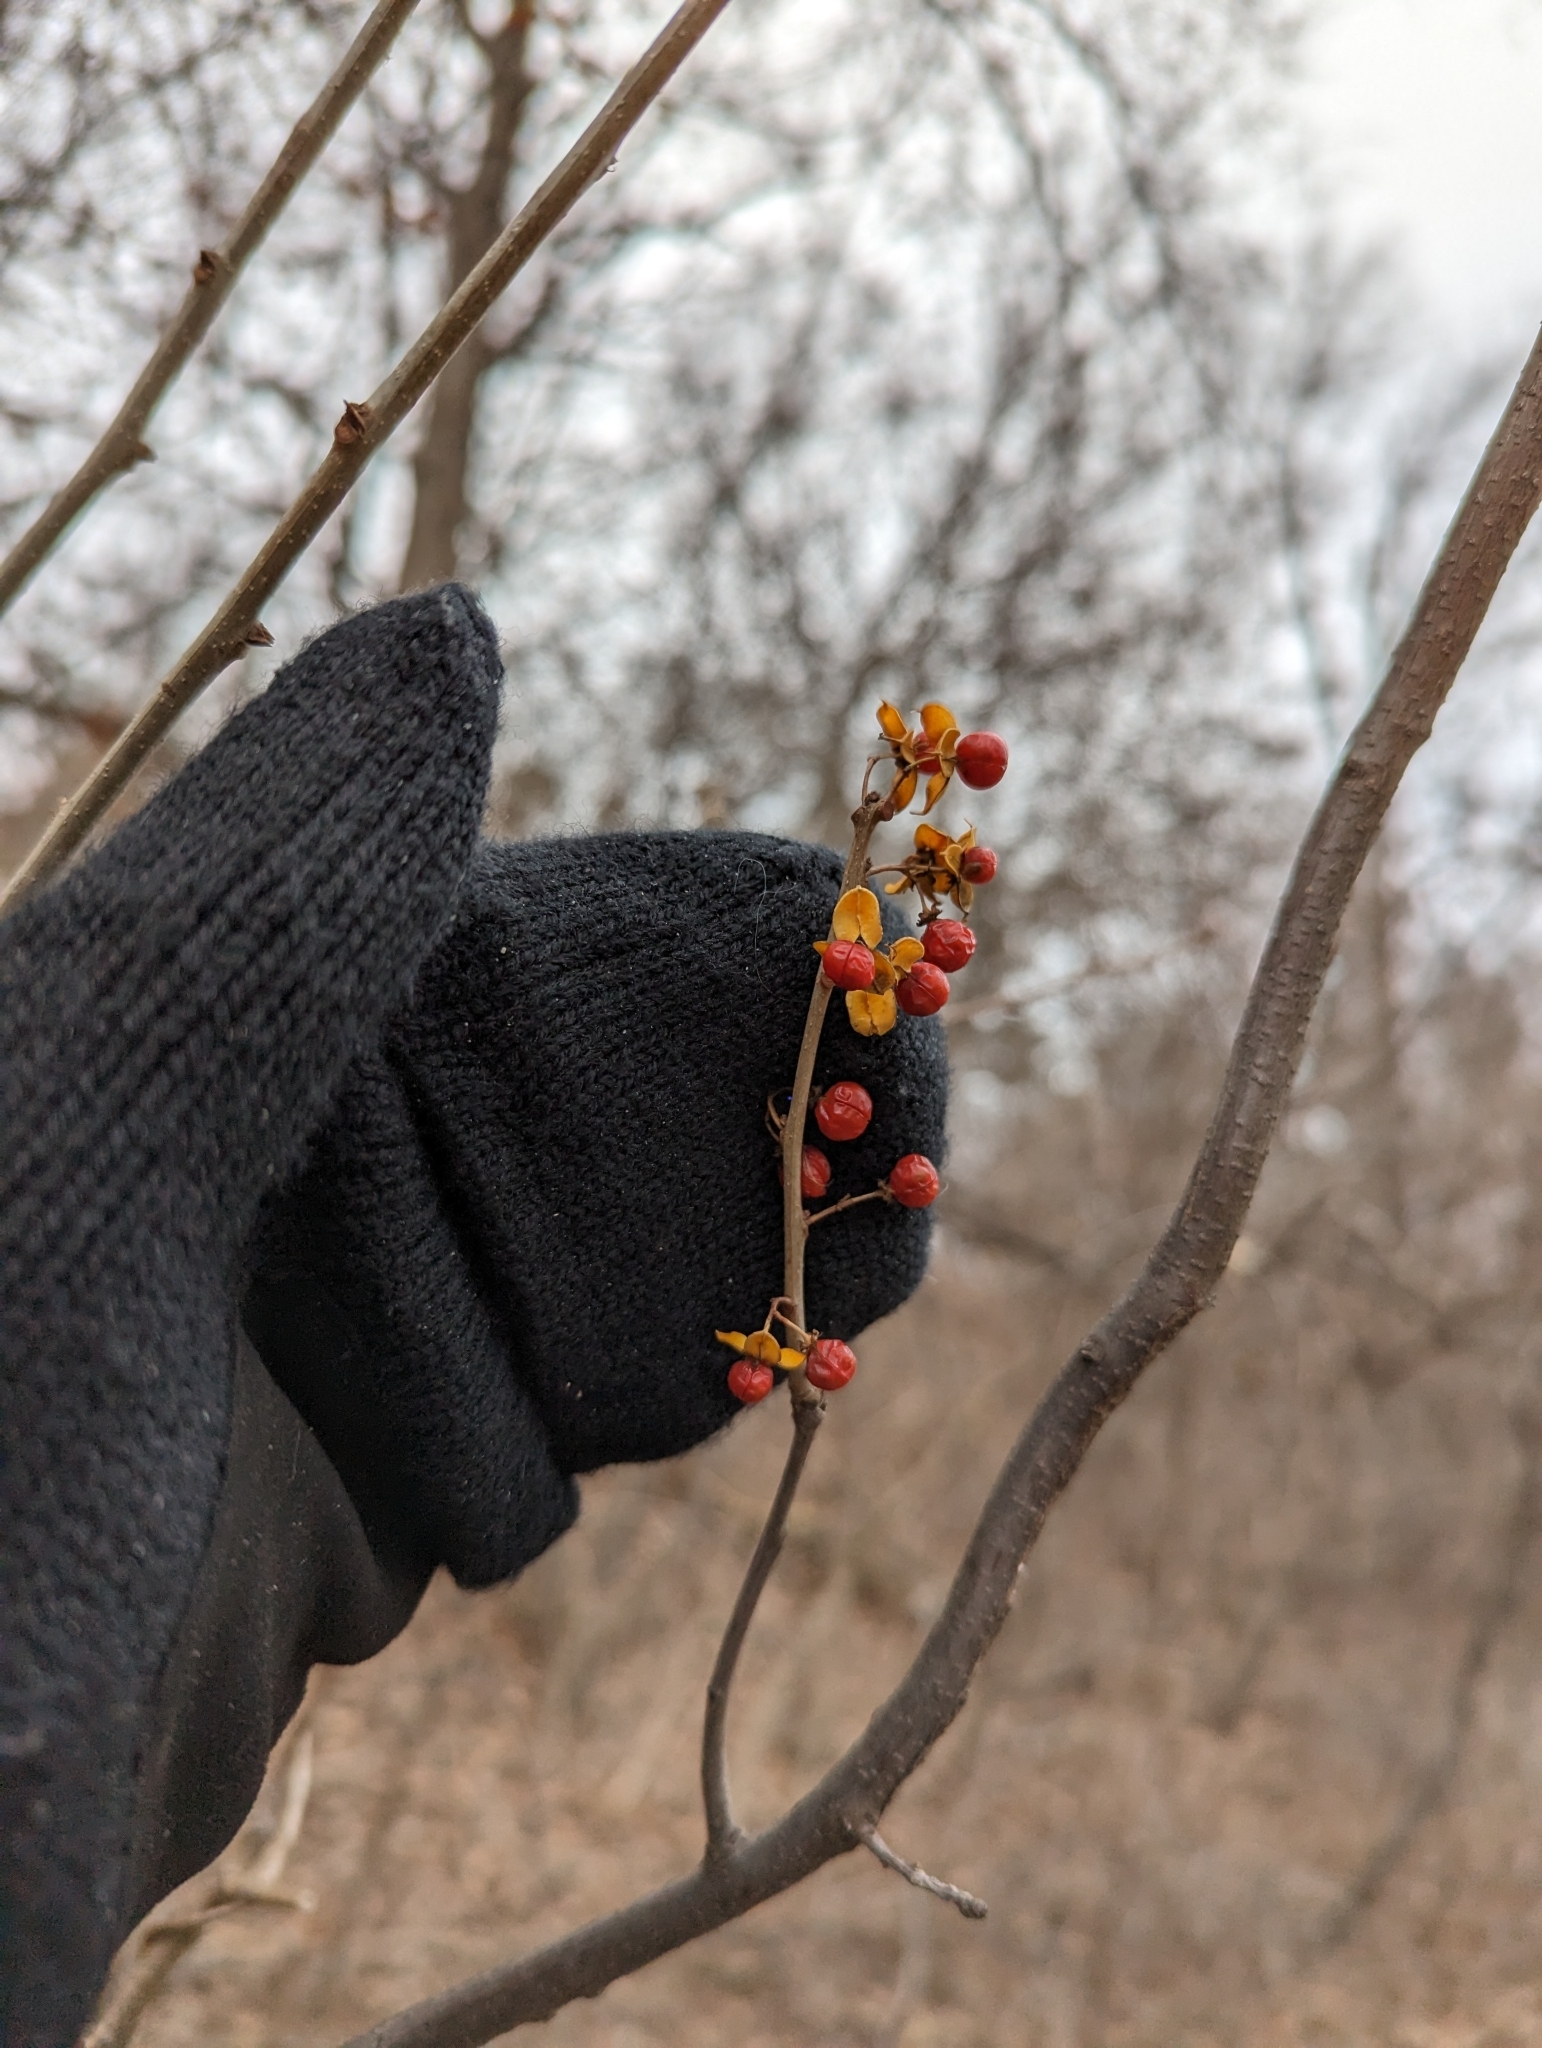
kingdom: Plantae
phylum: Tracheophyta
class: Magnoliopsida
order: Celastrales
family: Celastraceae
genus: Celastrus
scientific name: Celastrus orbiculatus
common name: Oriental bittersweet
